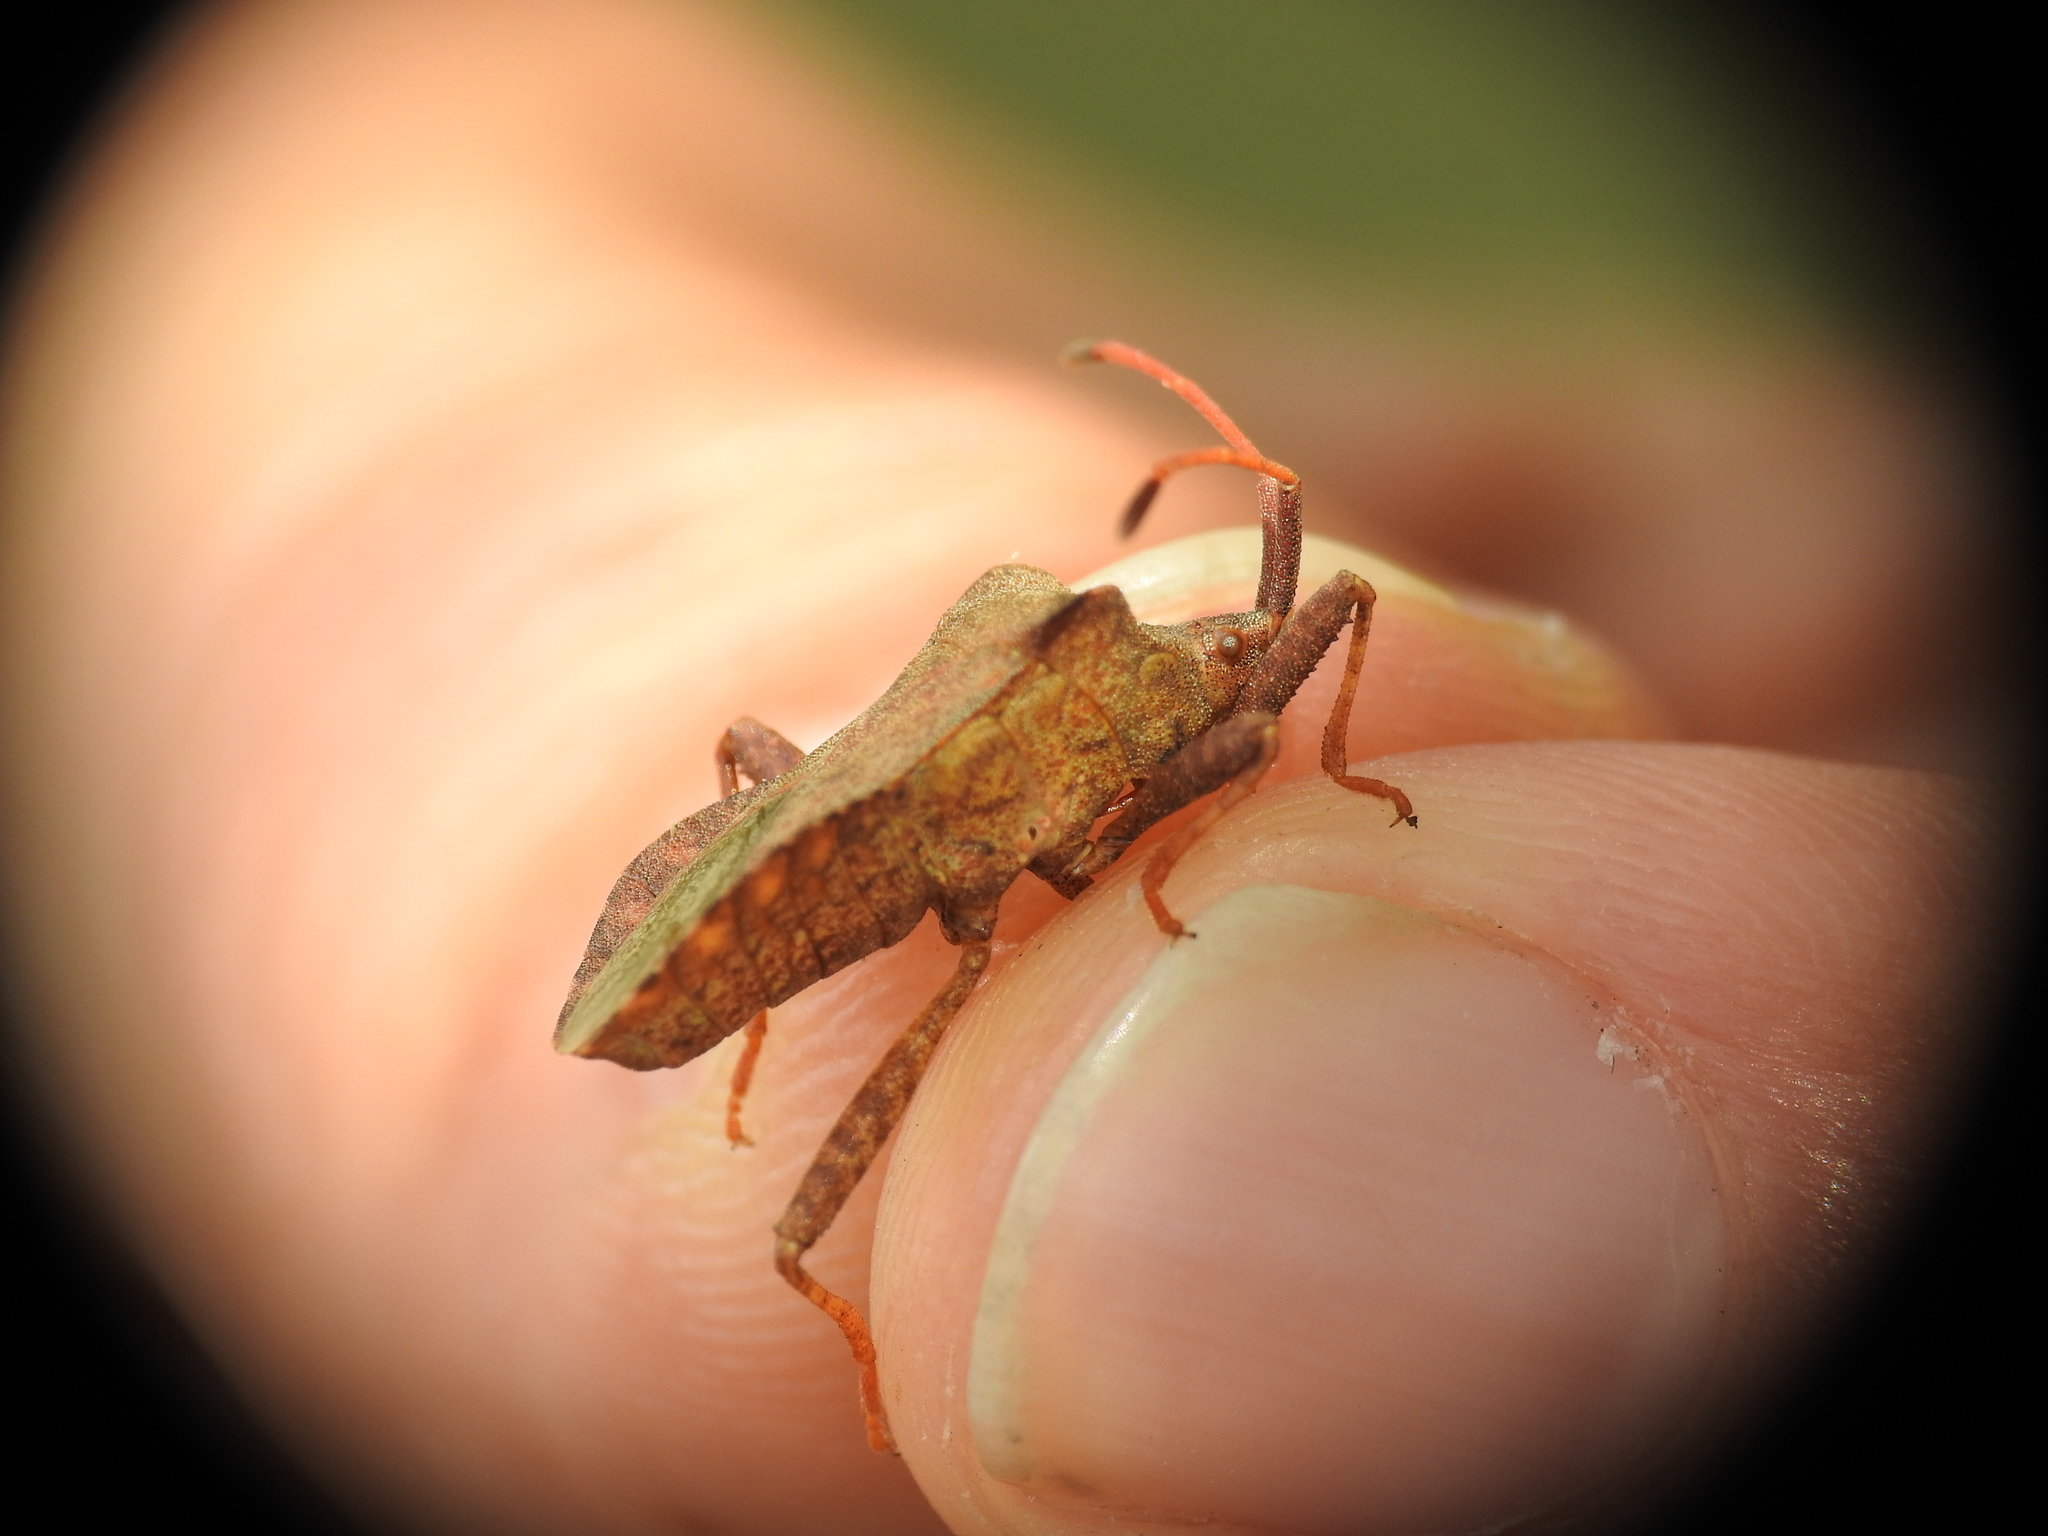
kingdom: Animalia
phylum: Arthropoda
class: Insecta
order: Hemiptera
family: Coreidae
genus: Coreus
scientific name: Coreus marginatus
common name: Dock bug
